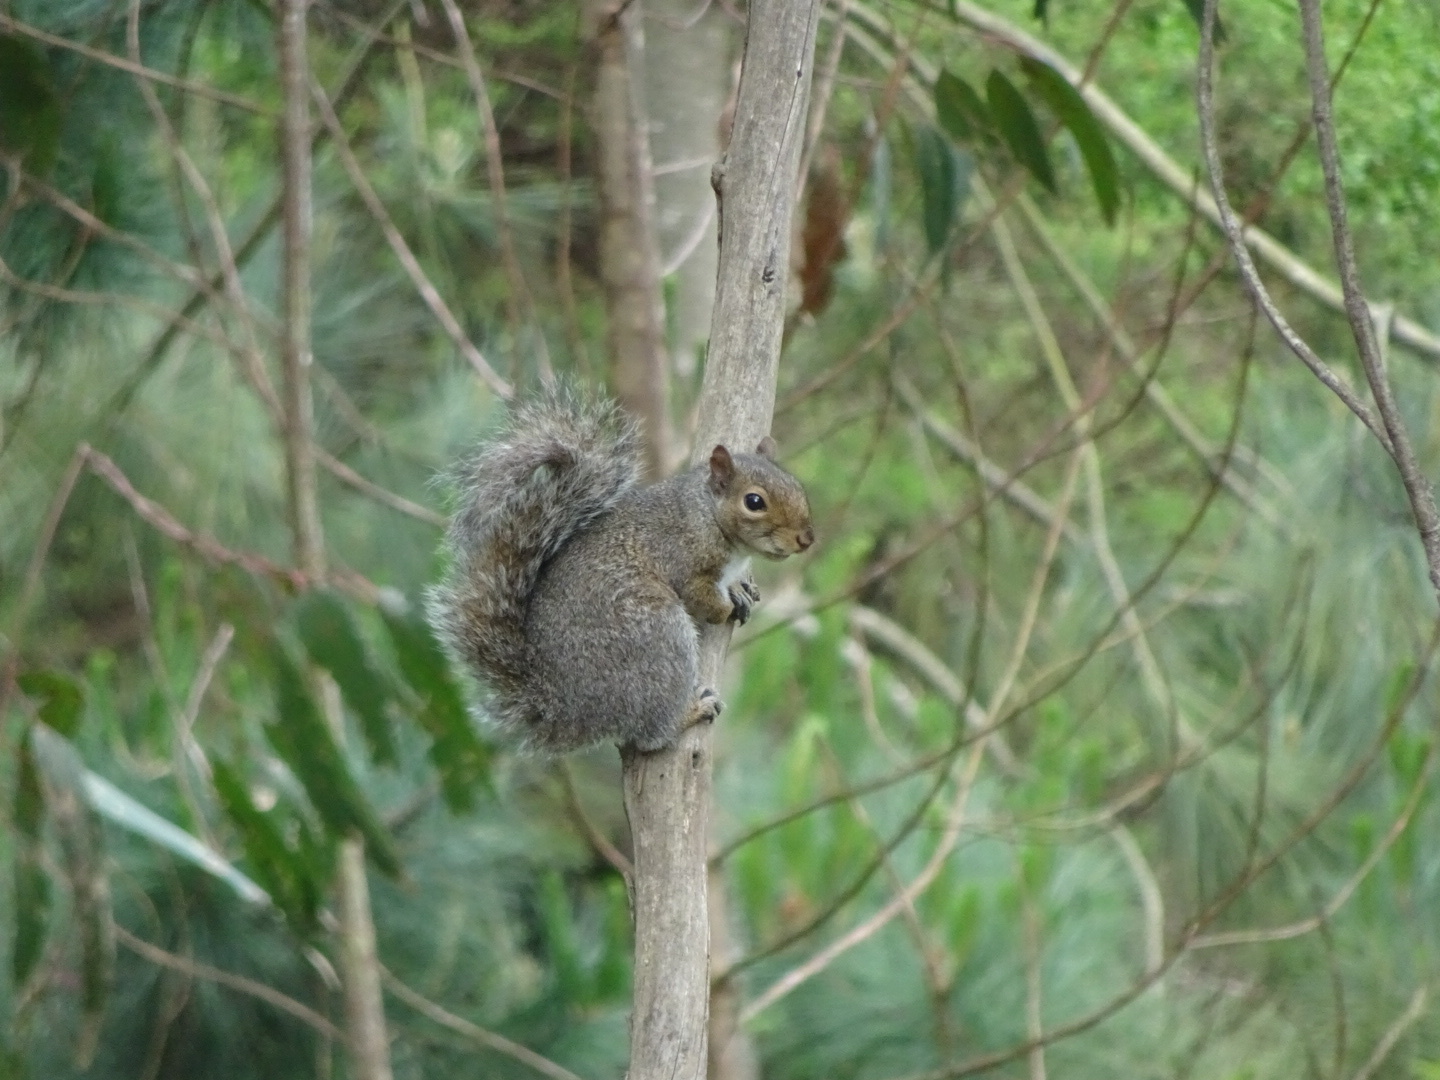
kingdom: Animalia
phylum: Chordata
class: Mammalia
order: Rodentia
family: Sciuridae
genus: Sciurus
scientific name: Sciurus carolinensis
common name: Eastern gray squirrel
